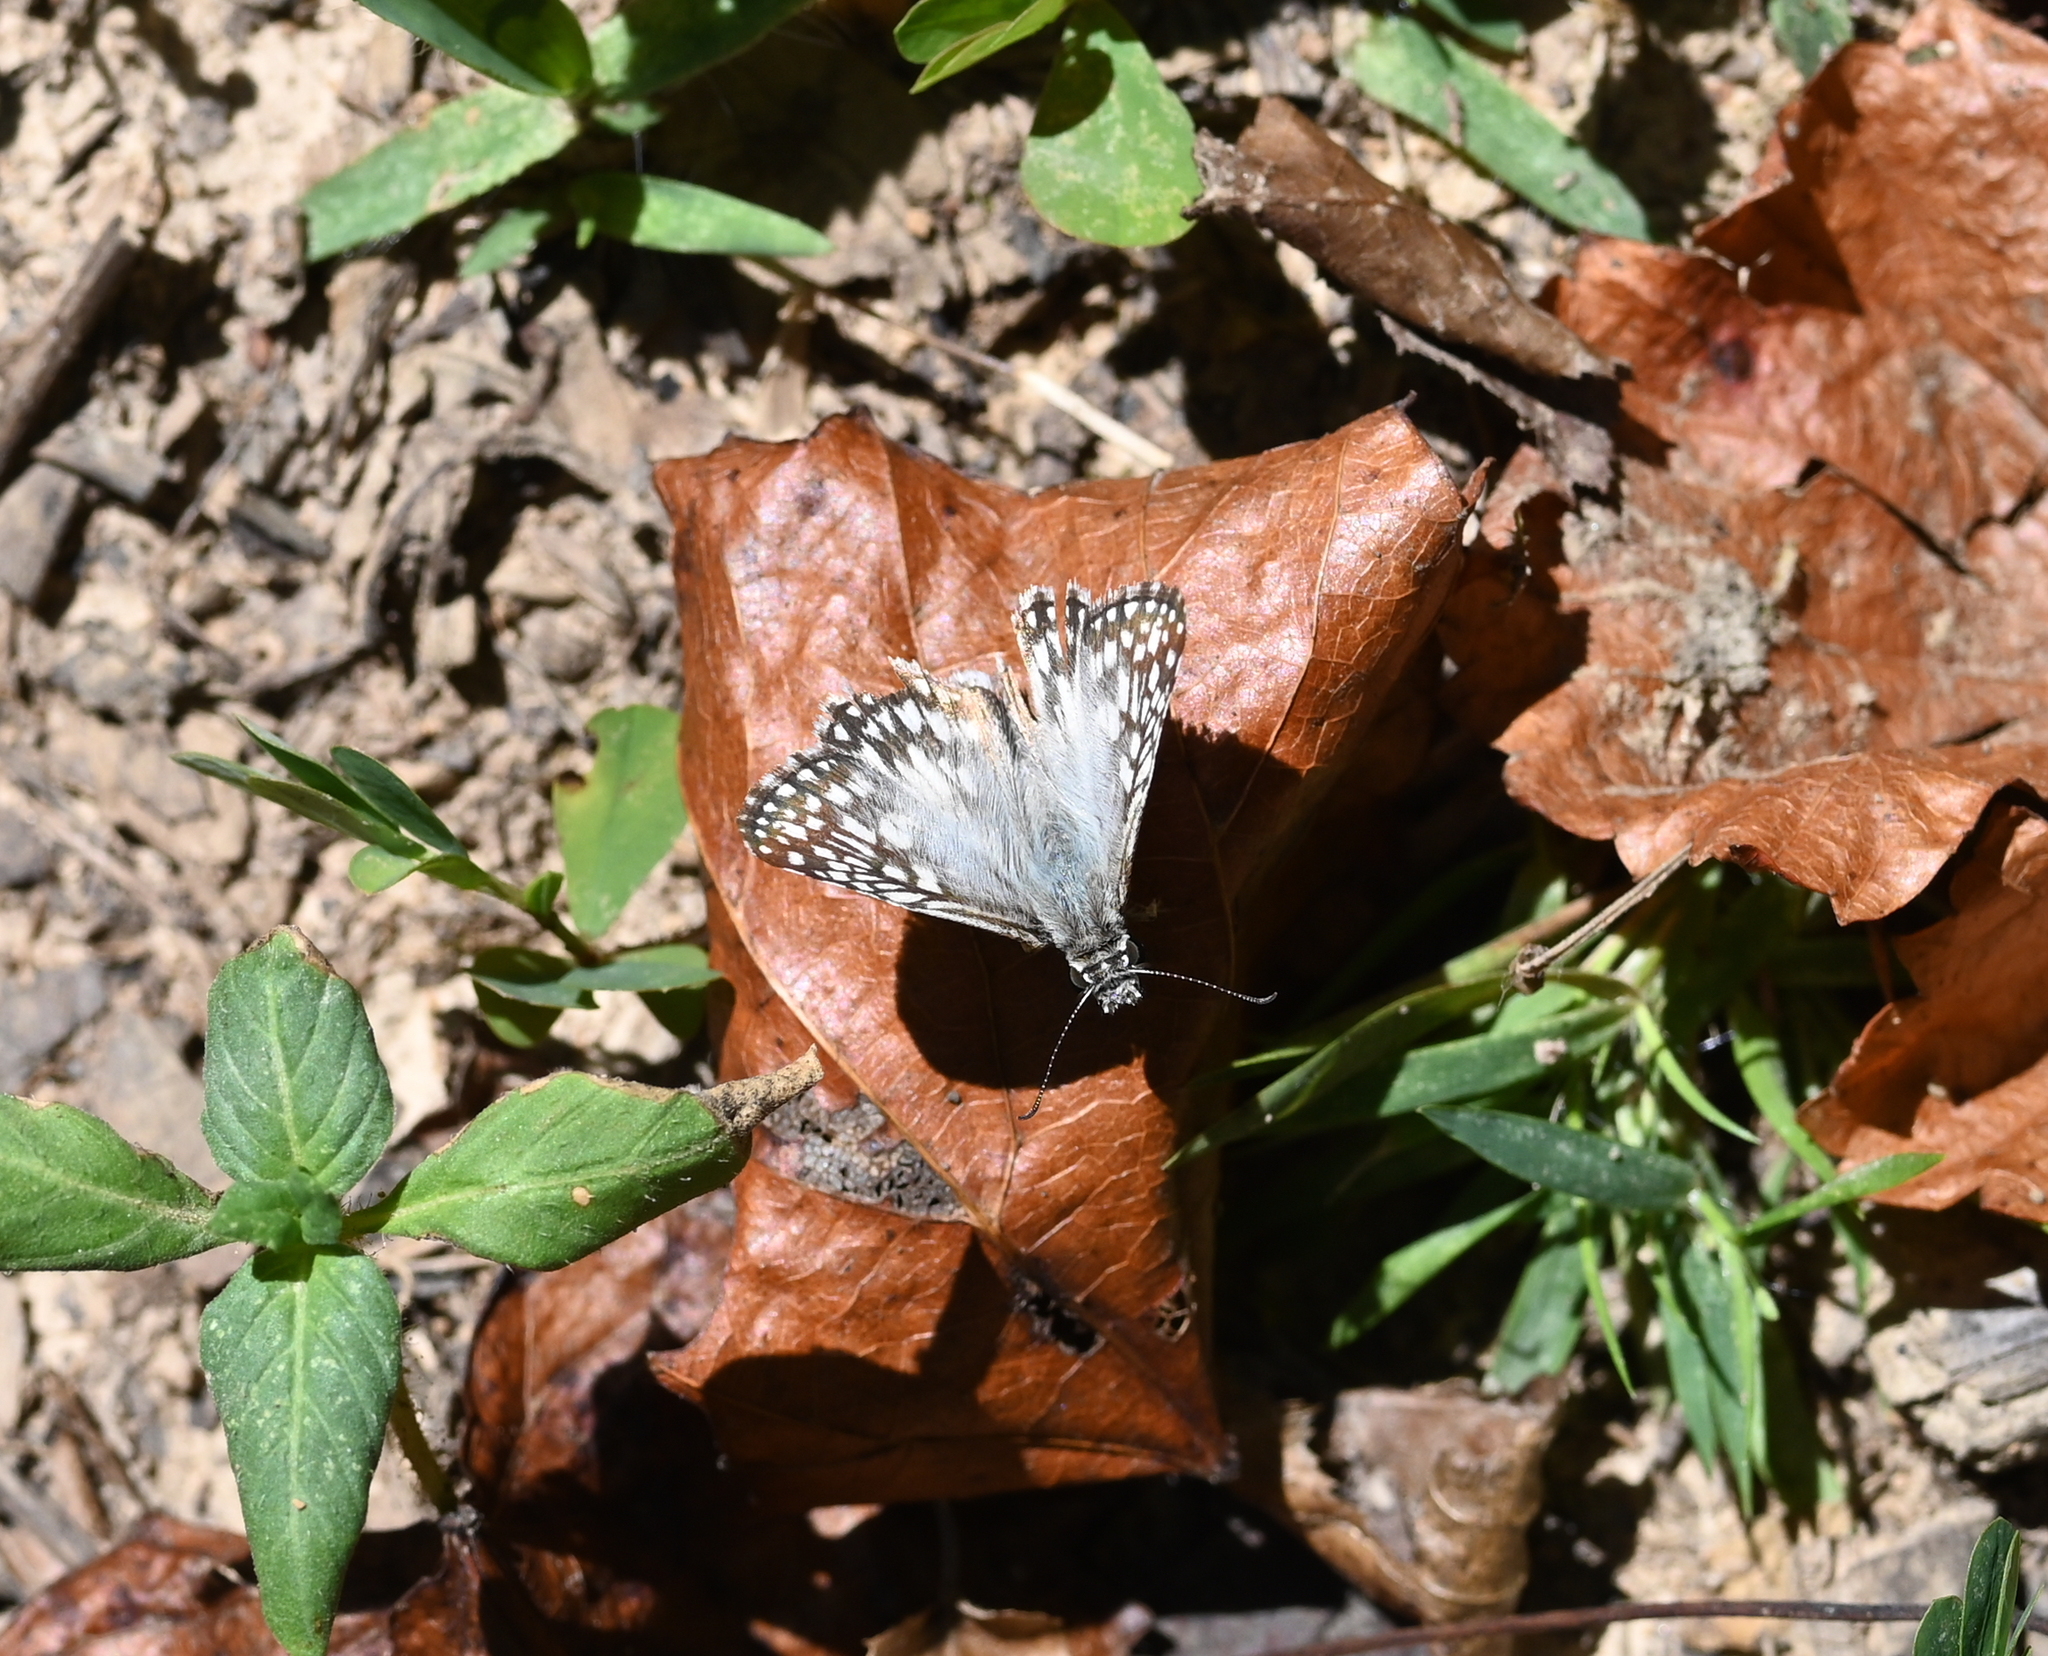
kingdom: Animalia
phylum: Arthropoda
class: Insecta
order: Lepidoptera
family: Hesperiidae
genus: Pyrgus
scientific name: Pyrgus oileus
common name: Tropical checkered-skipper
